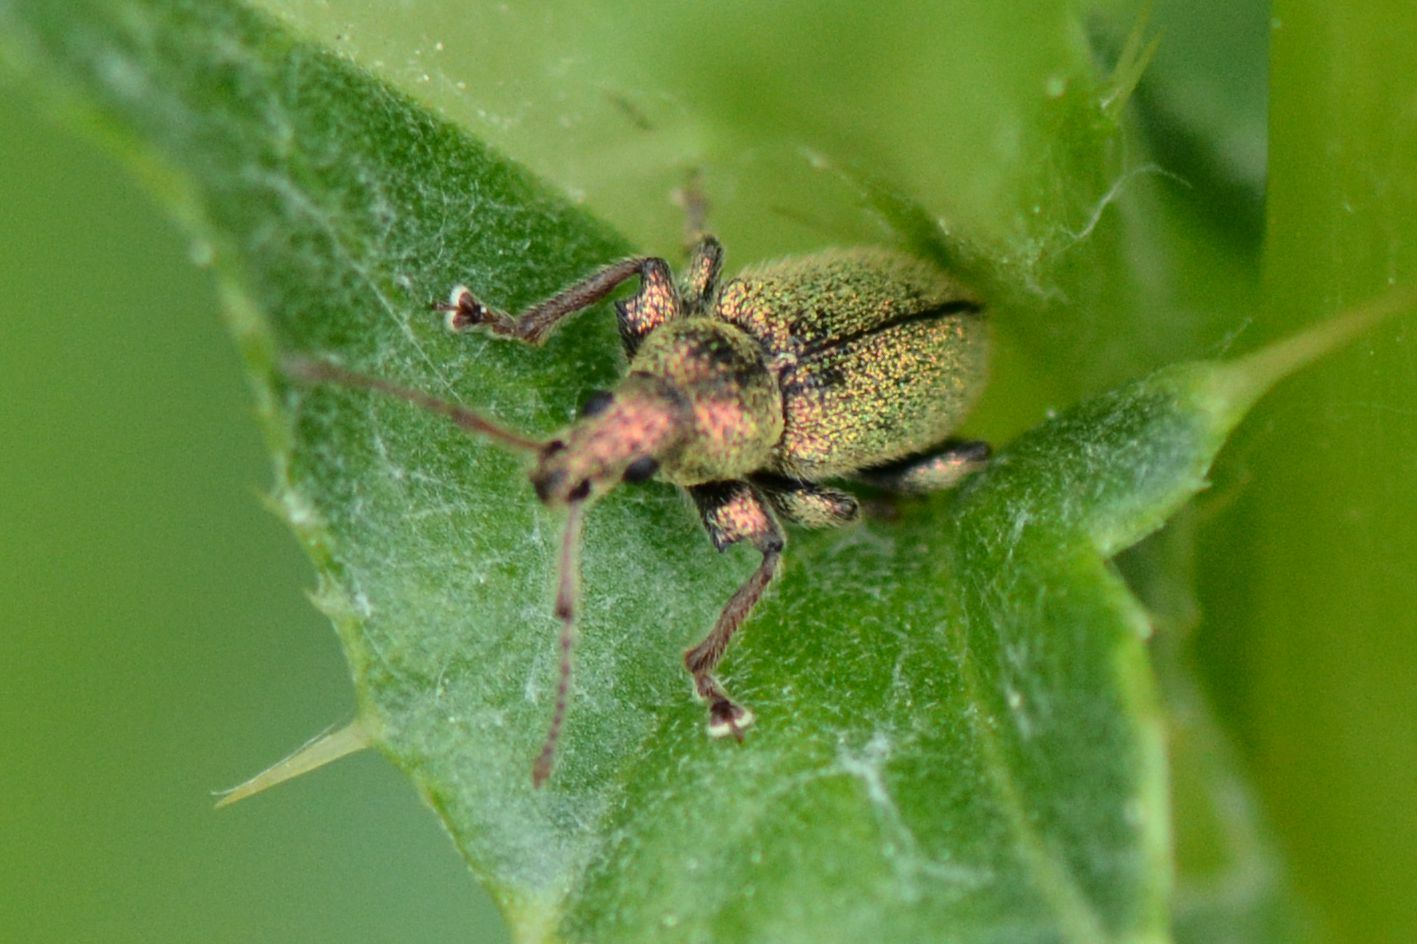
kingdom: Animalia
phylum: Arthropoda
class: Insecta
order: Coleoptera
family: Curculionidae
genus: Phyllobius
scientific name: Phyllobius betulinus
